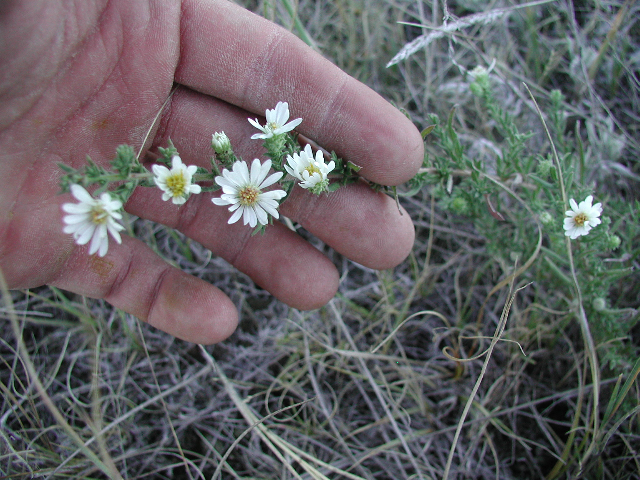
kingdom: Plantae
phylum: Tracheophyta
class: Magnoliopsida
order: Asterales
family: Asteraceae
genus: Symphyotrichum
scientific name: Symphyotrichum ericoides
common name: Heath aster
